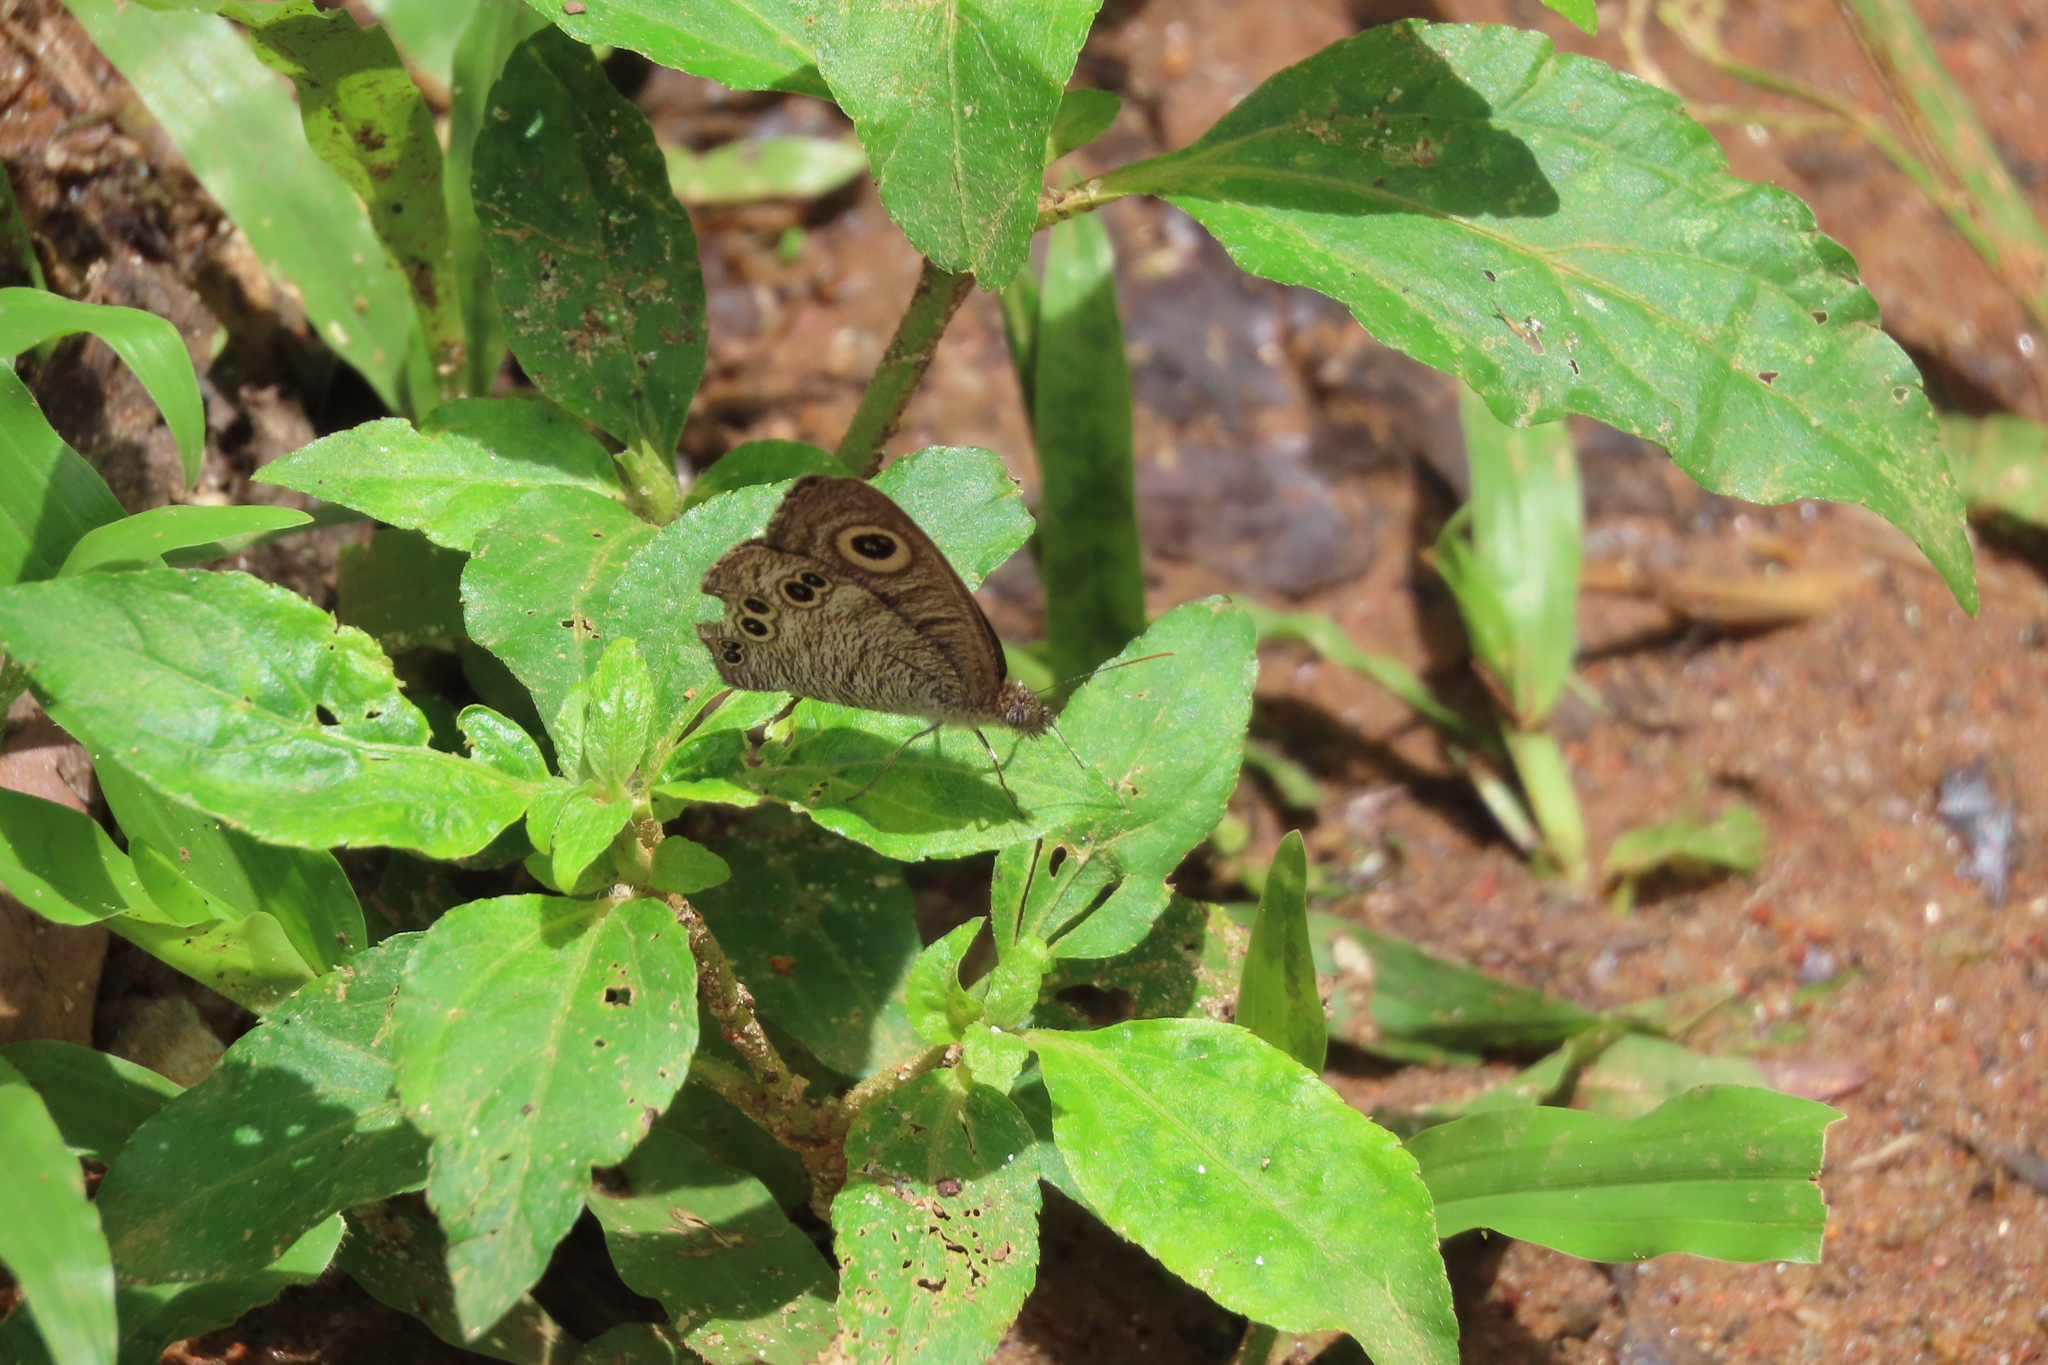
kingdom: Animalia
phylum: Arthropoda
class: Insecta
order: Lepidoptera
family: Nymphalidae
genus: Ypthima
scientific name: Ypthima baldus
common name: Common five-ring
